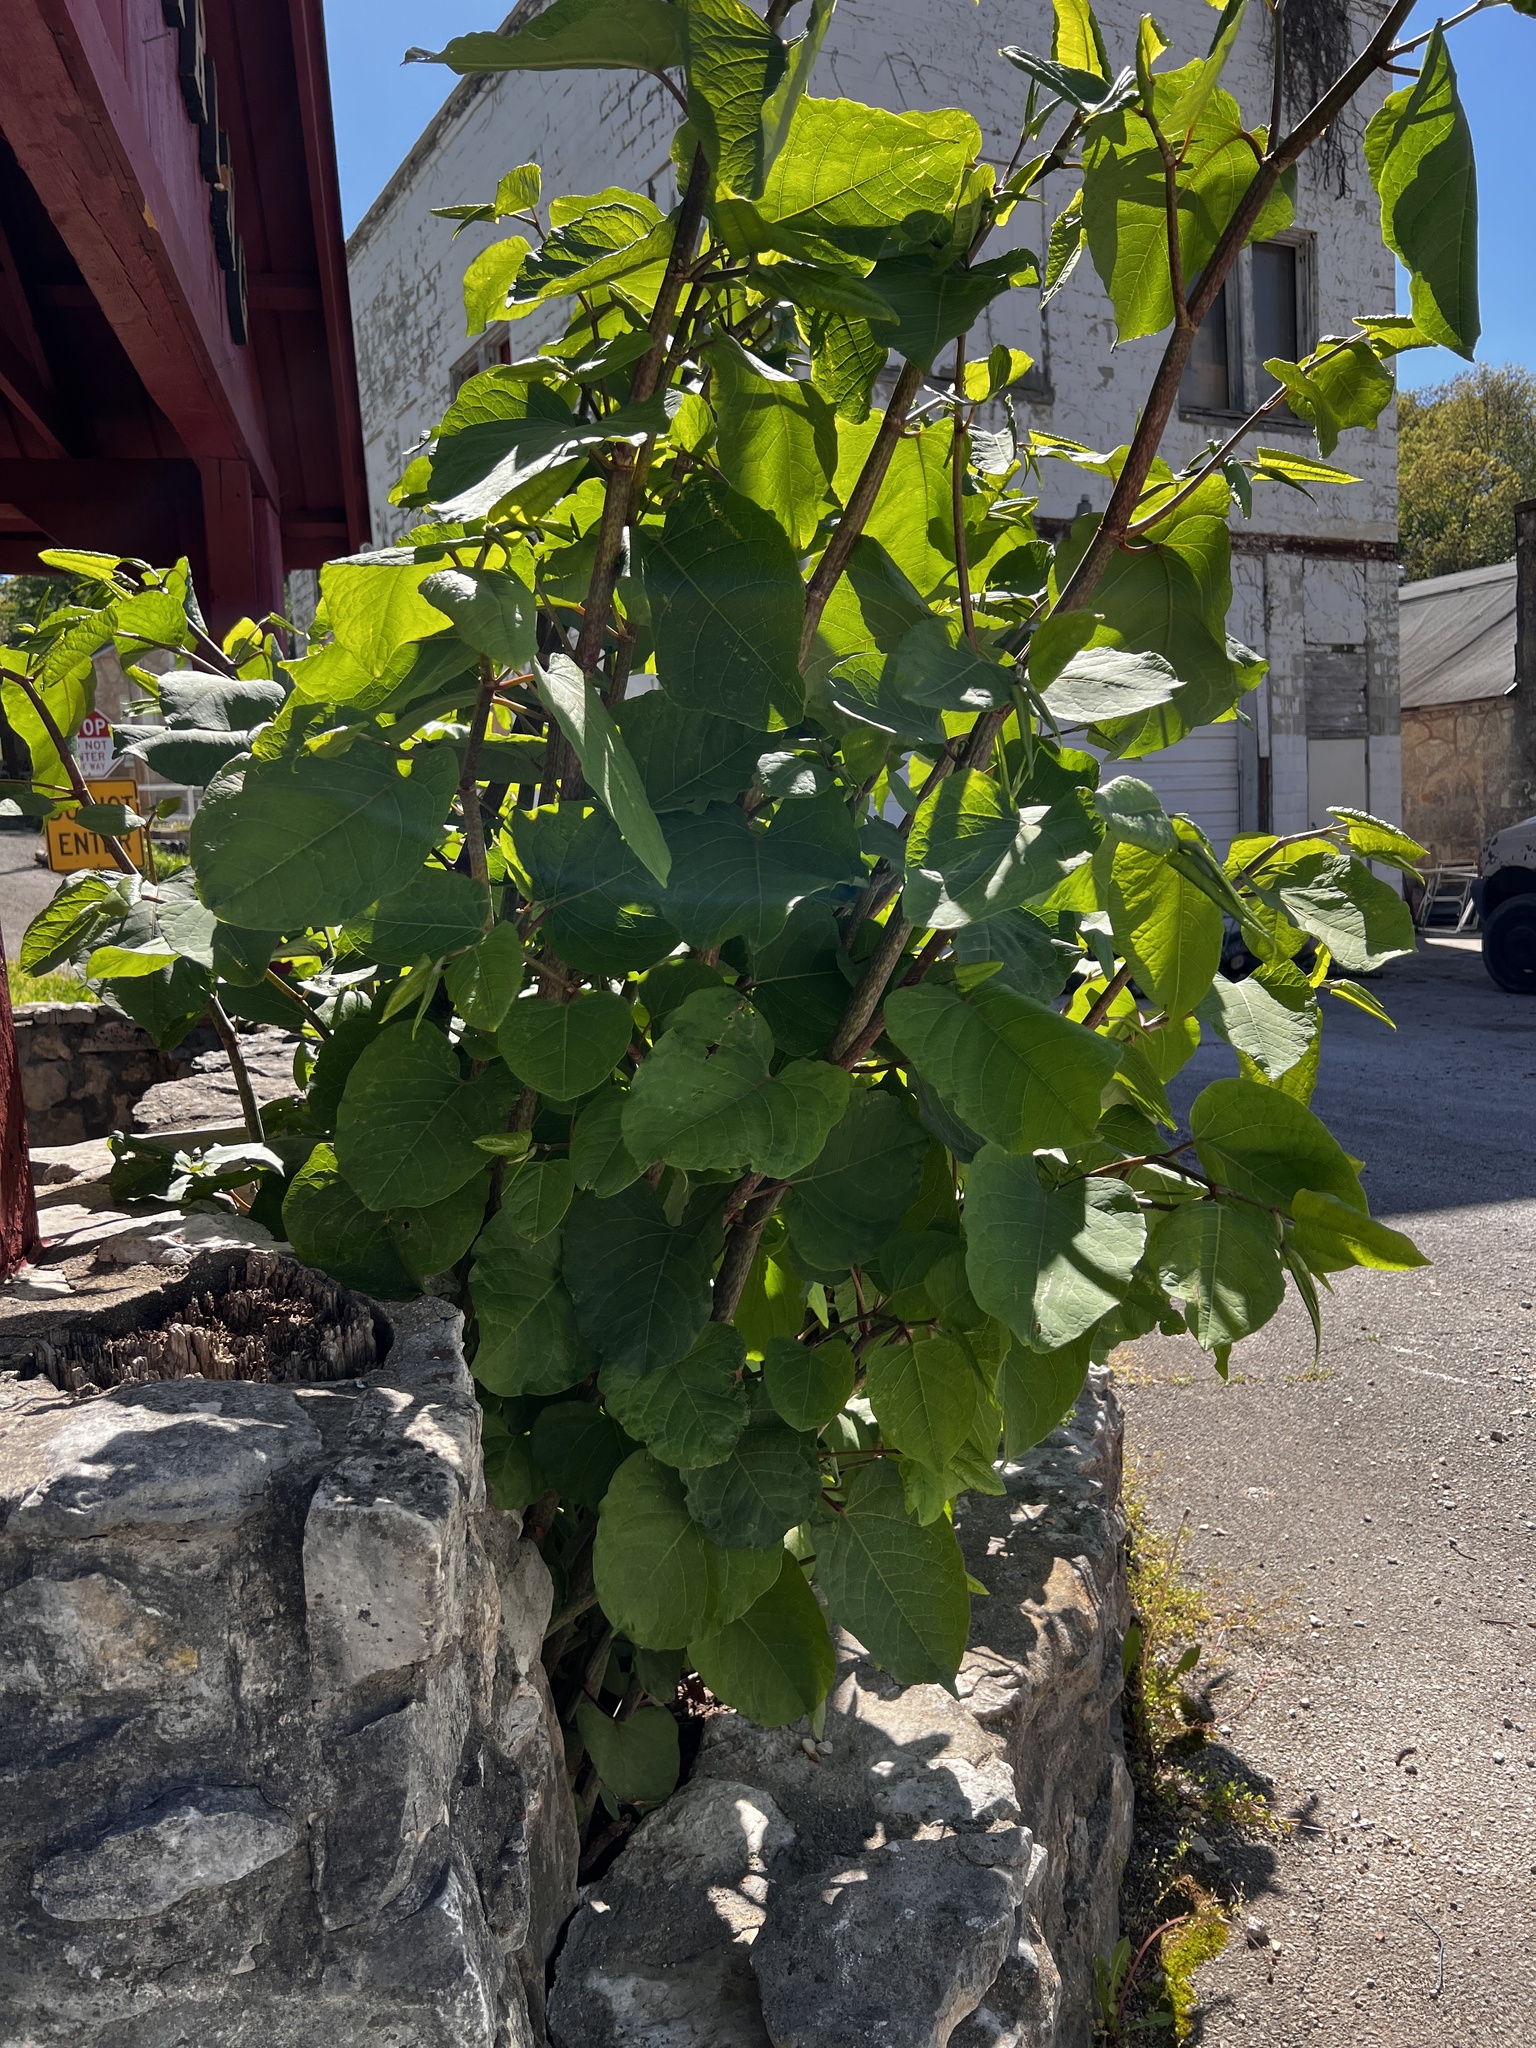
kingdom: Plantae
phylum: Tracheophyta
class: Magnoliopsida
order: Caryophyllales
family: Polygonaceae
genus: Reynoutria
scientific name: Reynoutria japonica
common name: Japanese knotweed
